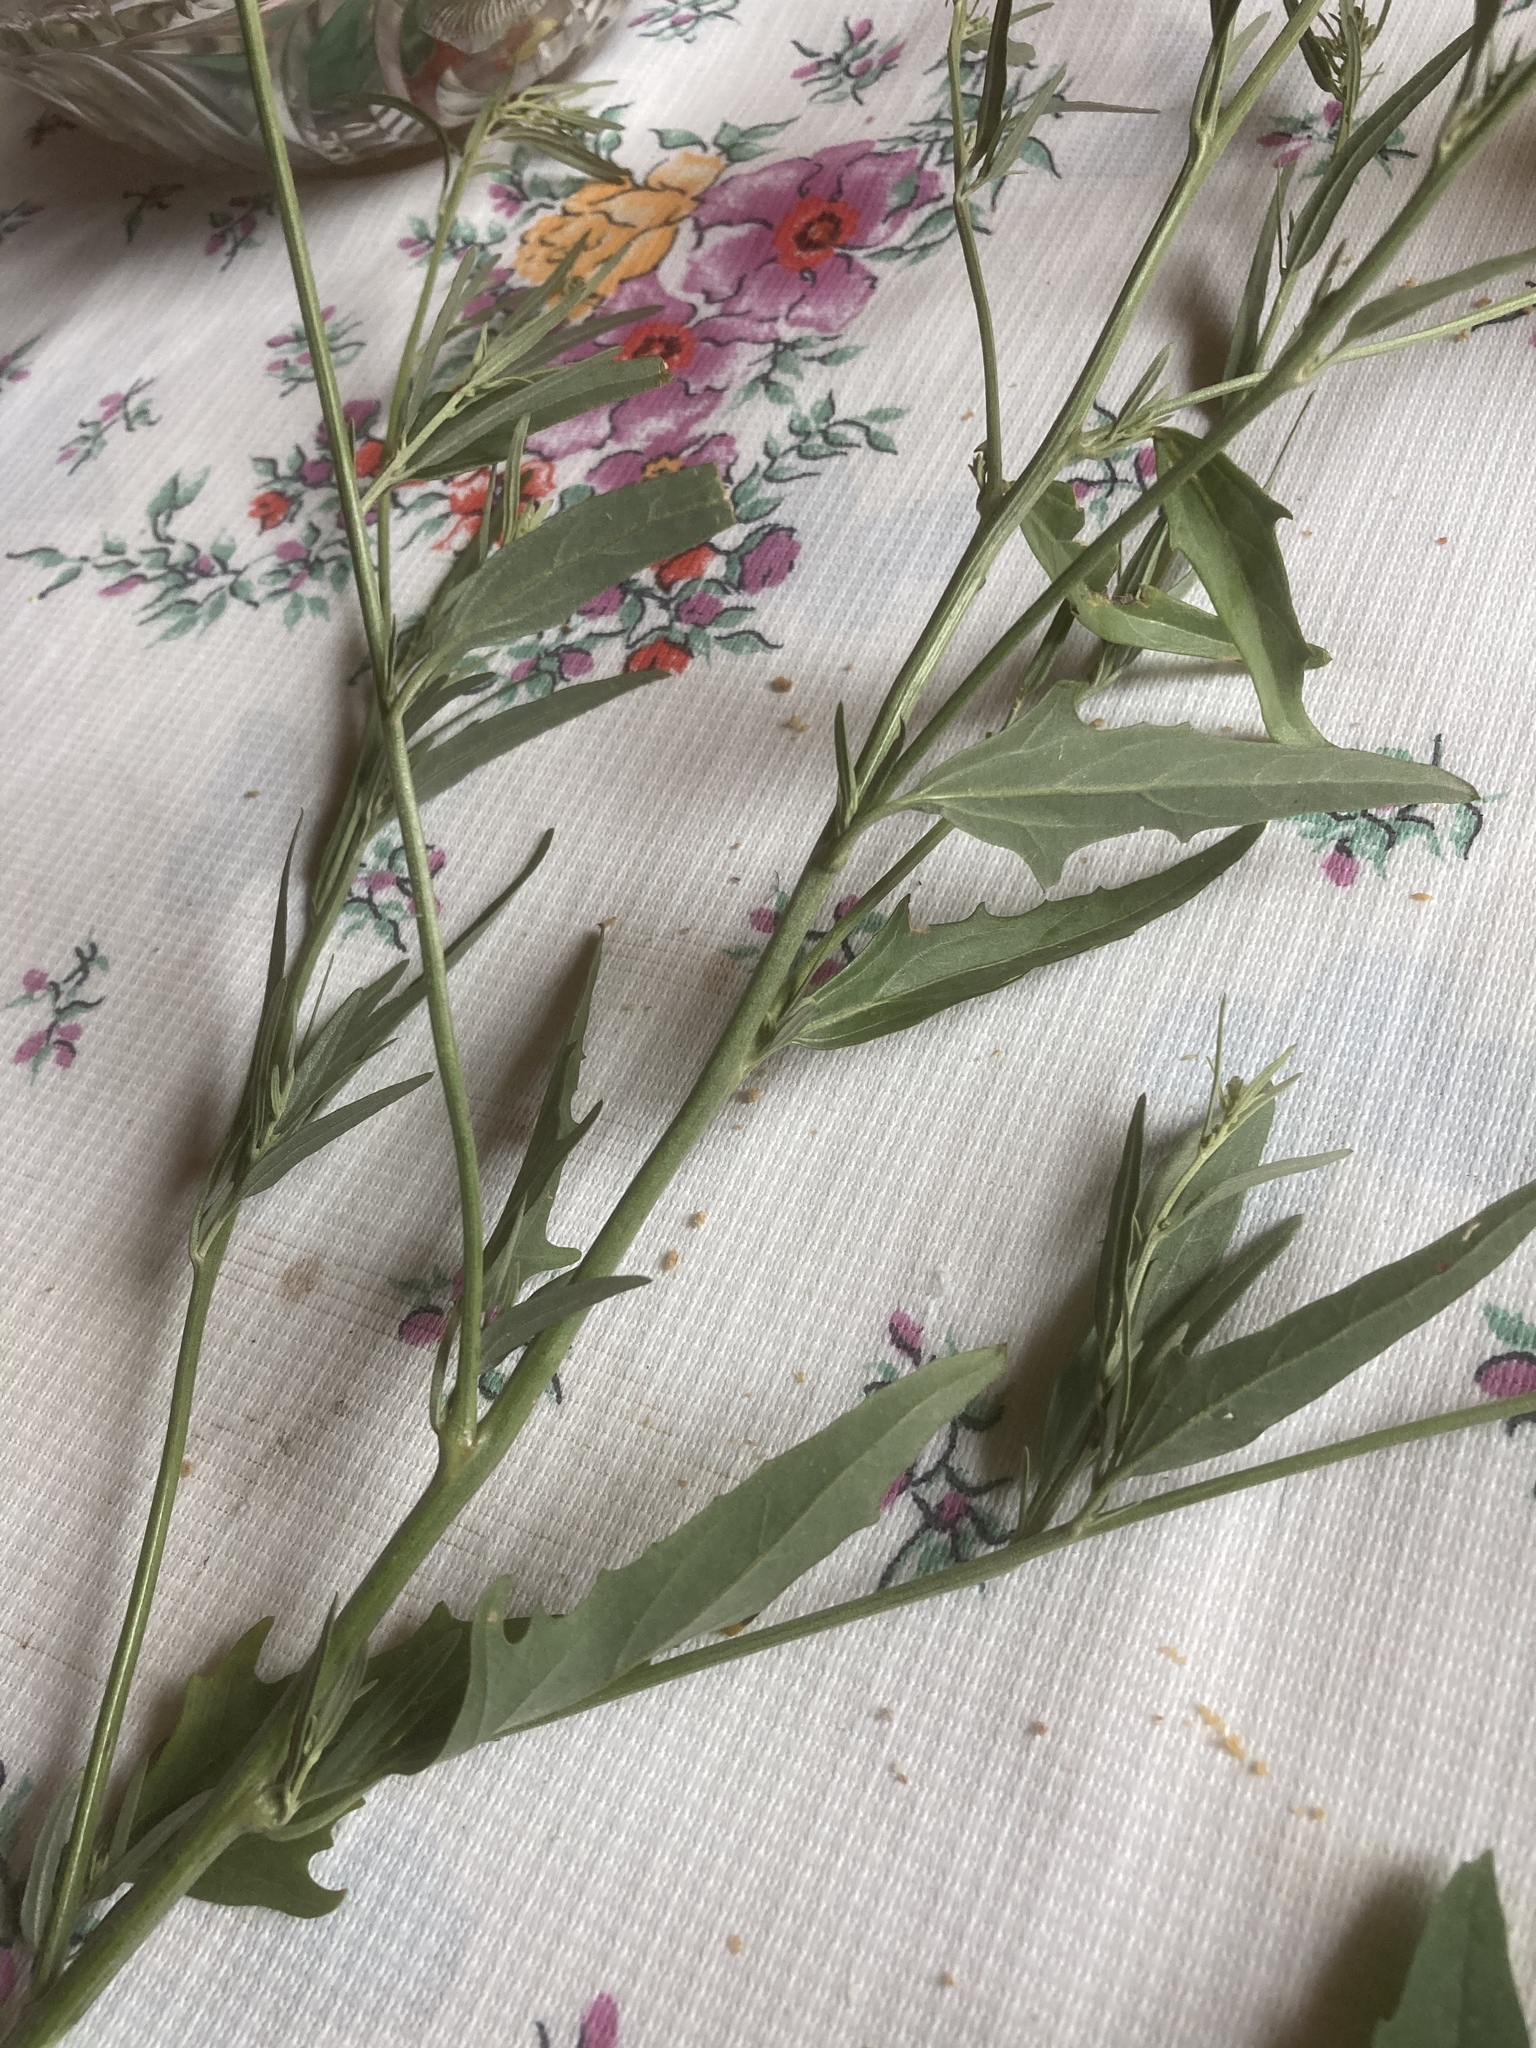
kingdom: Plantae
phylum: Tracheophyta
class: Magnoliopsida
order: Caryophyllales
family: Amaranthaceae
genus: Atriplex
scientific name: Atriplex oblongifolia
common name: Oblongleaf orache
